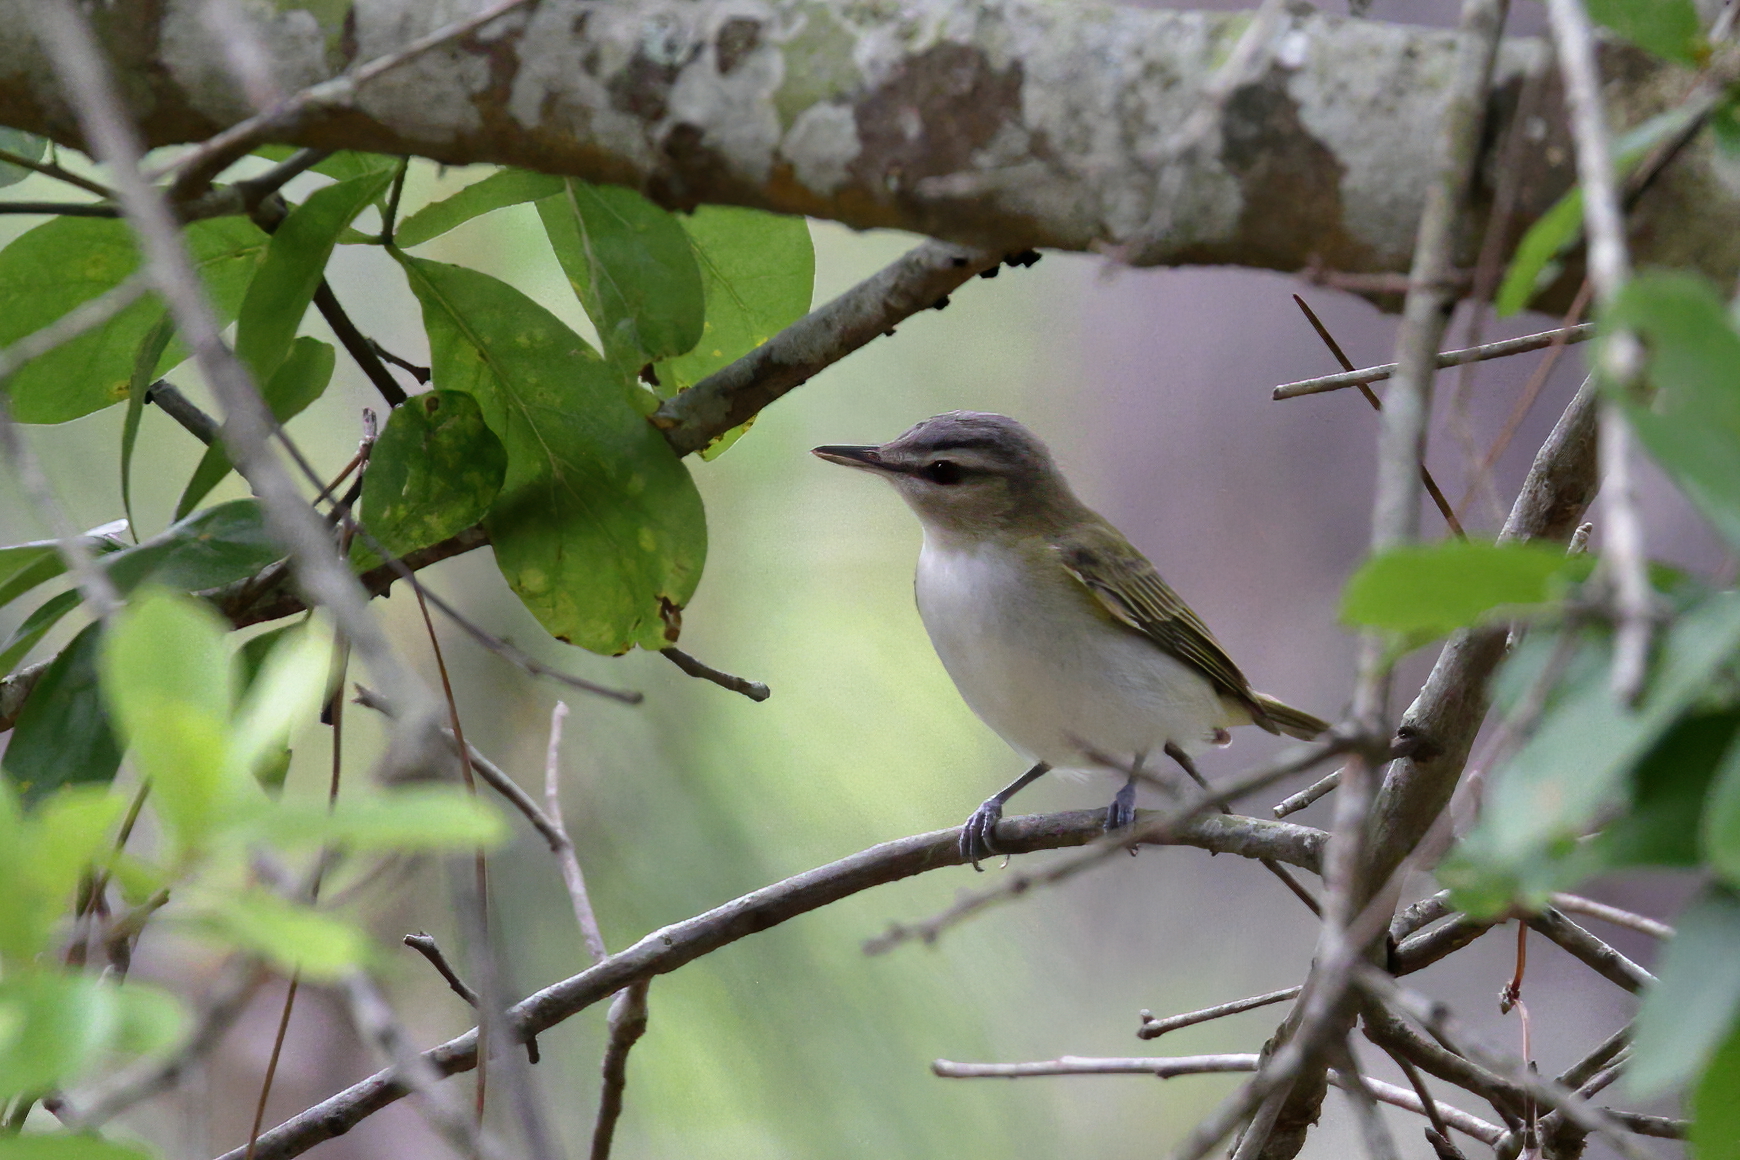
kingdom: Animalia
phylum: Chordata
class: Aves
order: Passeriformes
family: Vireonidae
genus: Vireo
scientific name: Vireo olivaceus
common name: Red-eyed vireo
